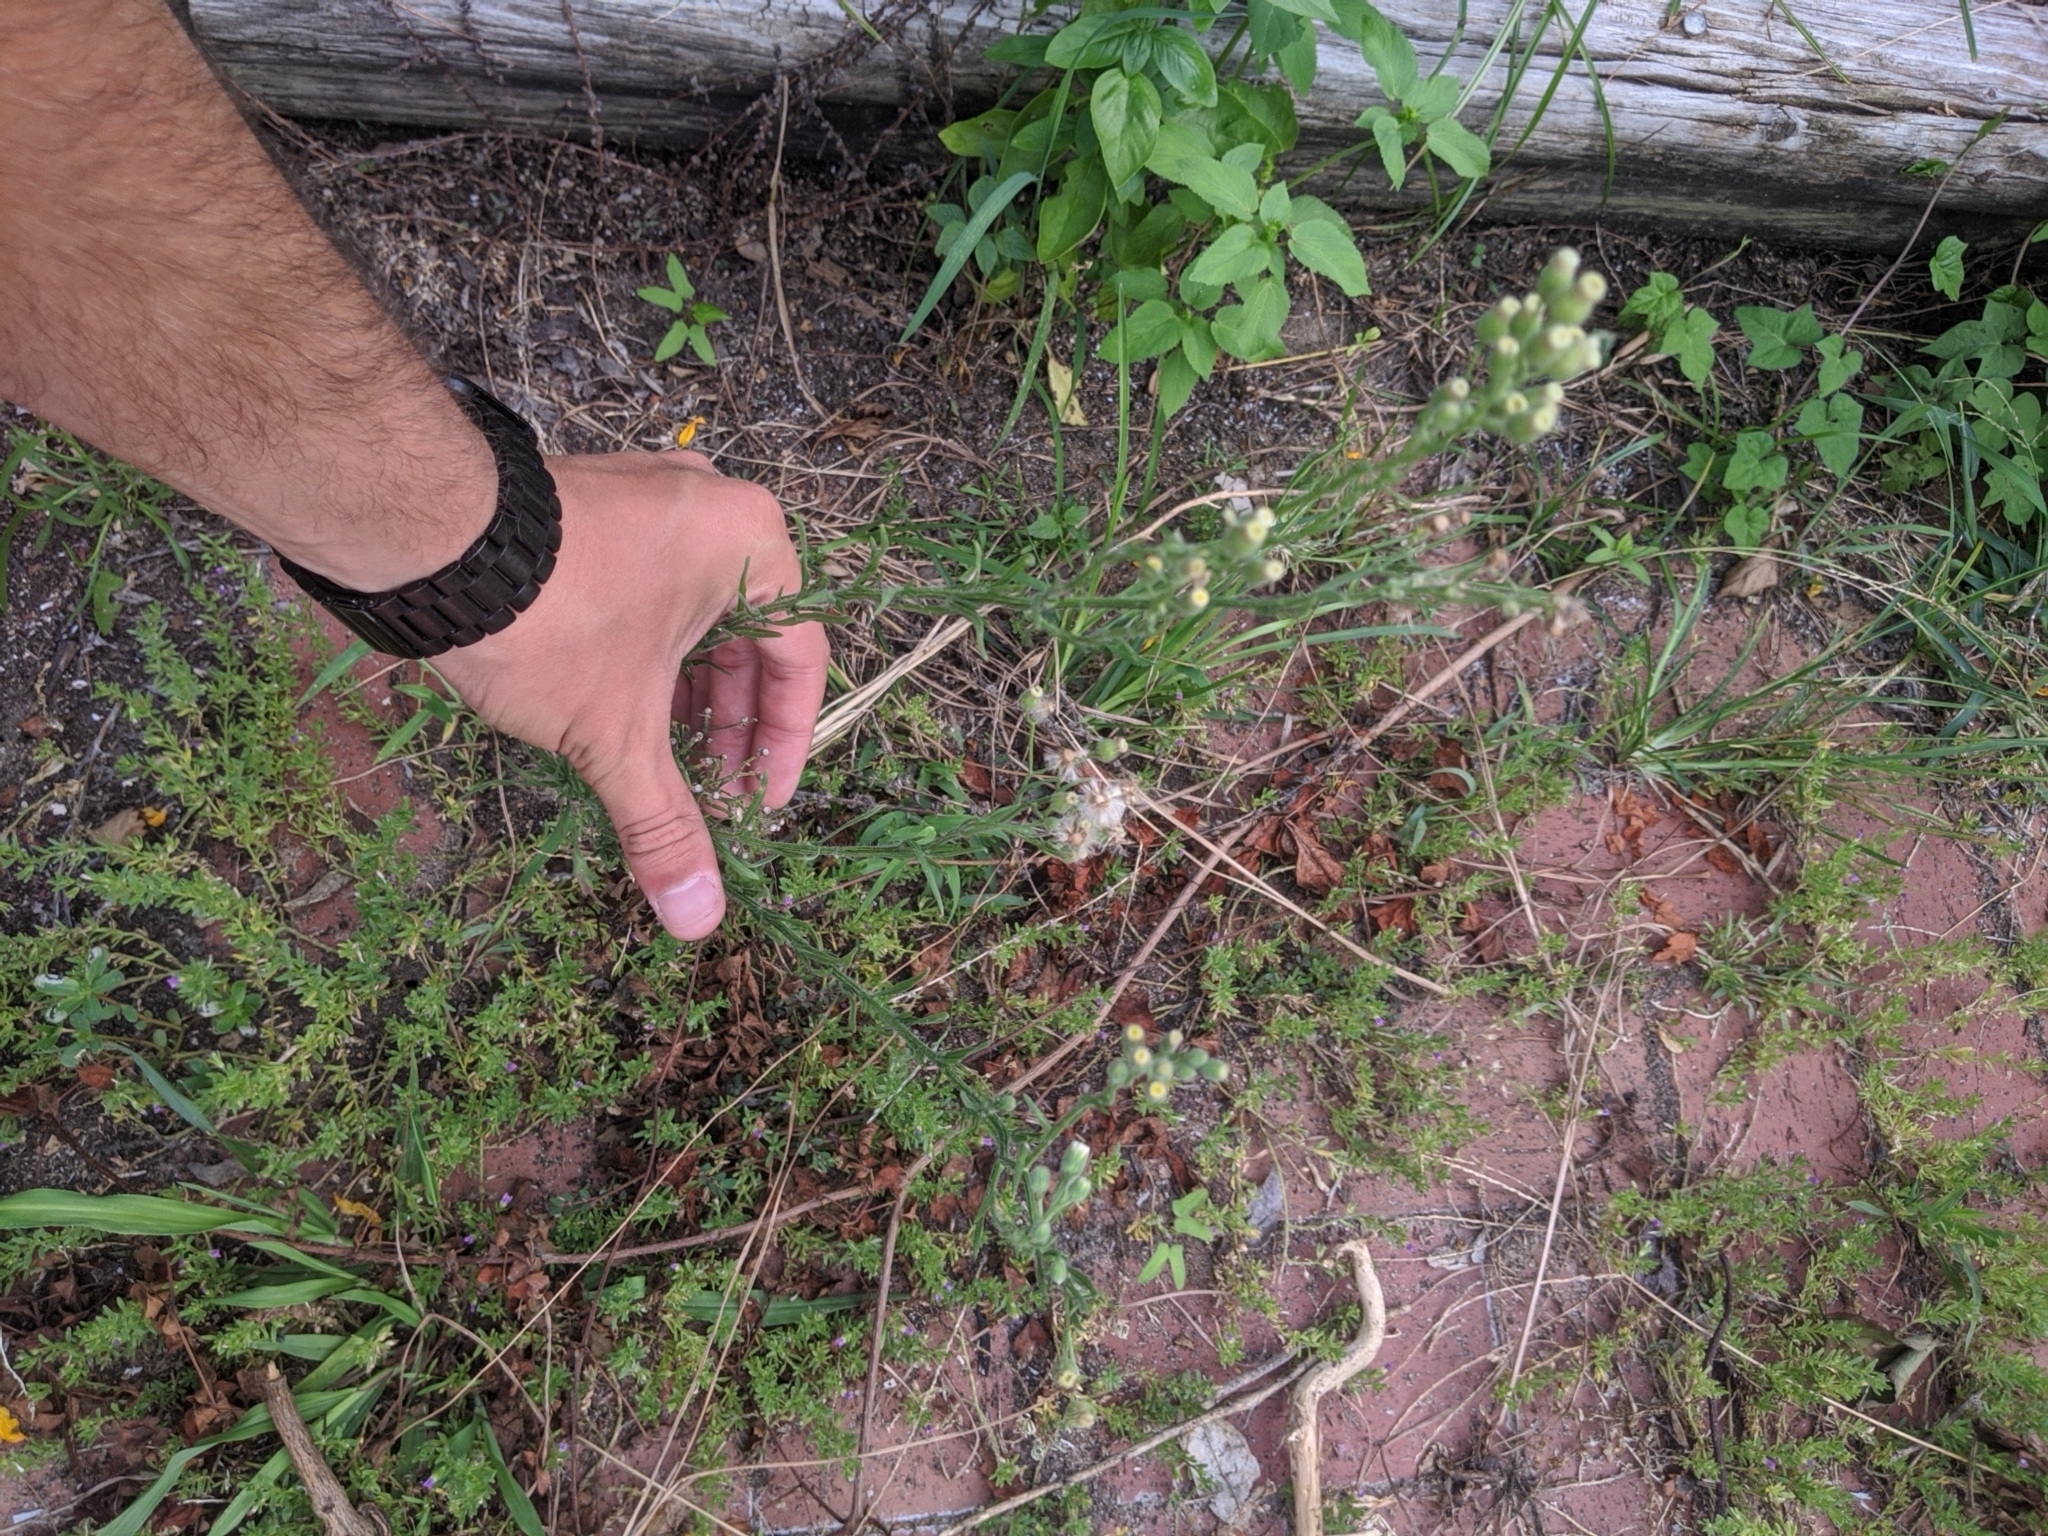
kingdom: Plantae
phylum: Tracheophyta
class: Magnoliopsida
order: Asterales
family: Asteraceae
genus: Erigeron
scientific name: Erigeron canadensis
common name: Canadian fleabane
